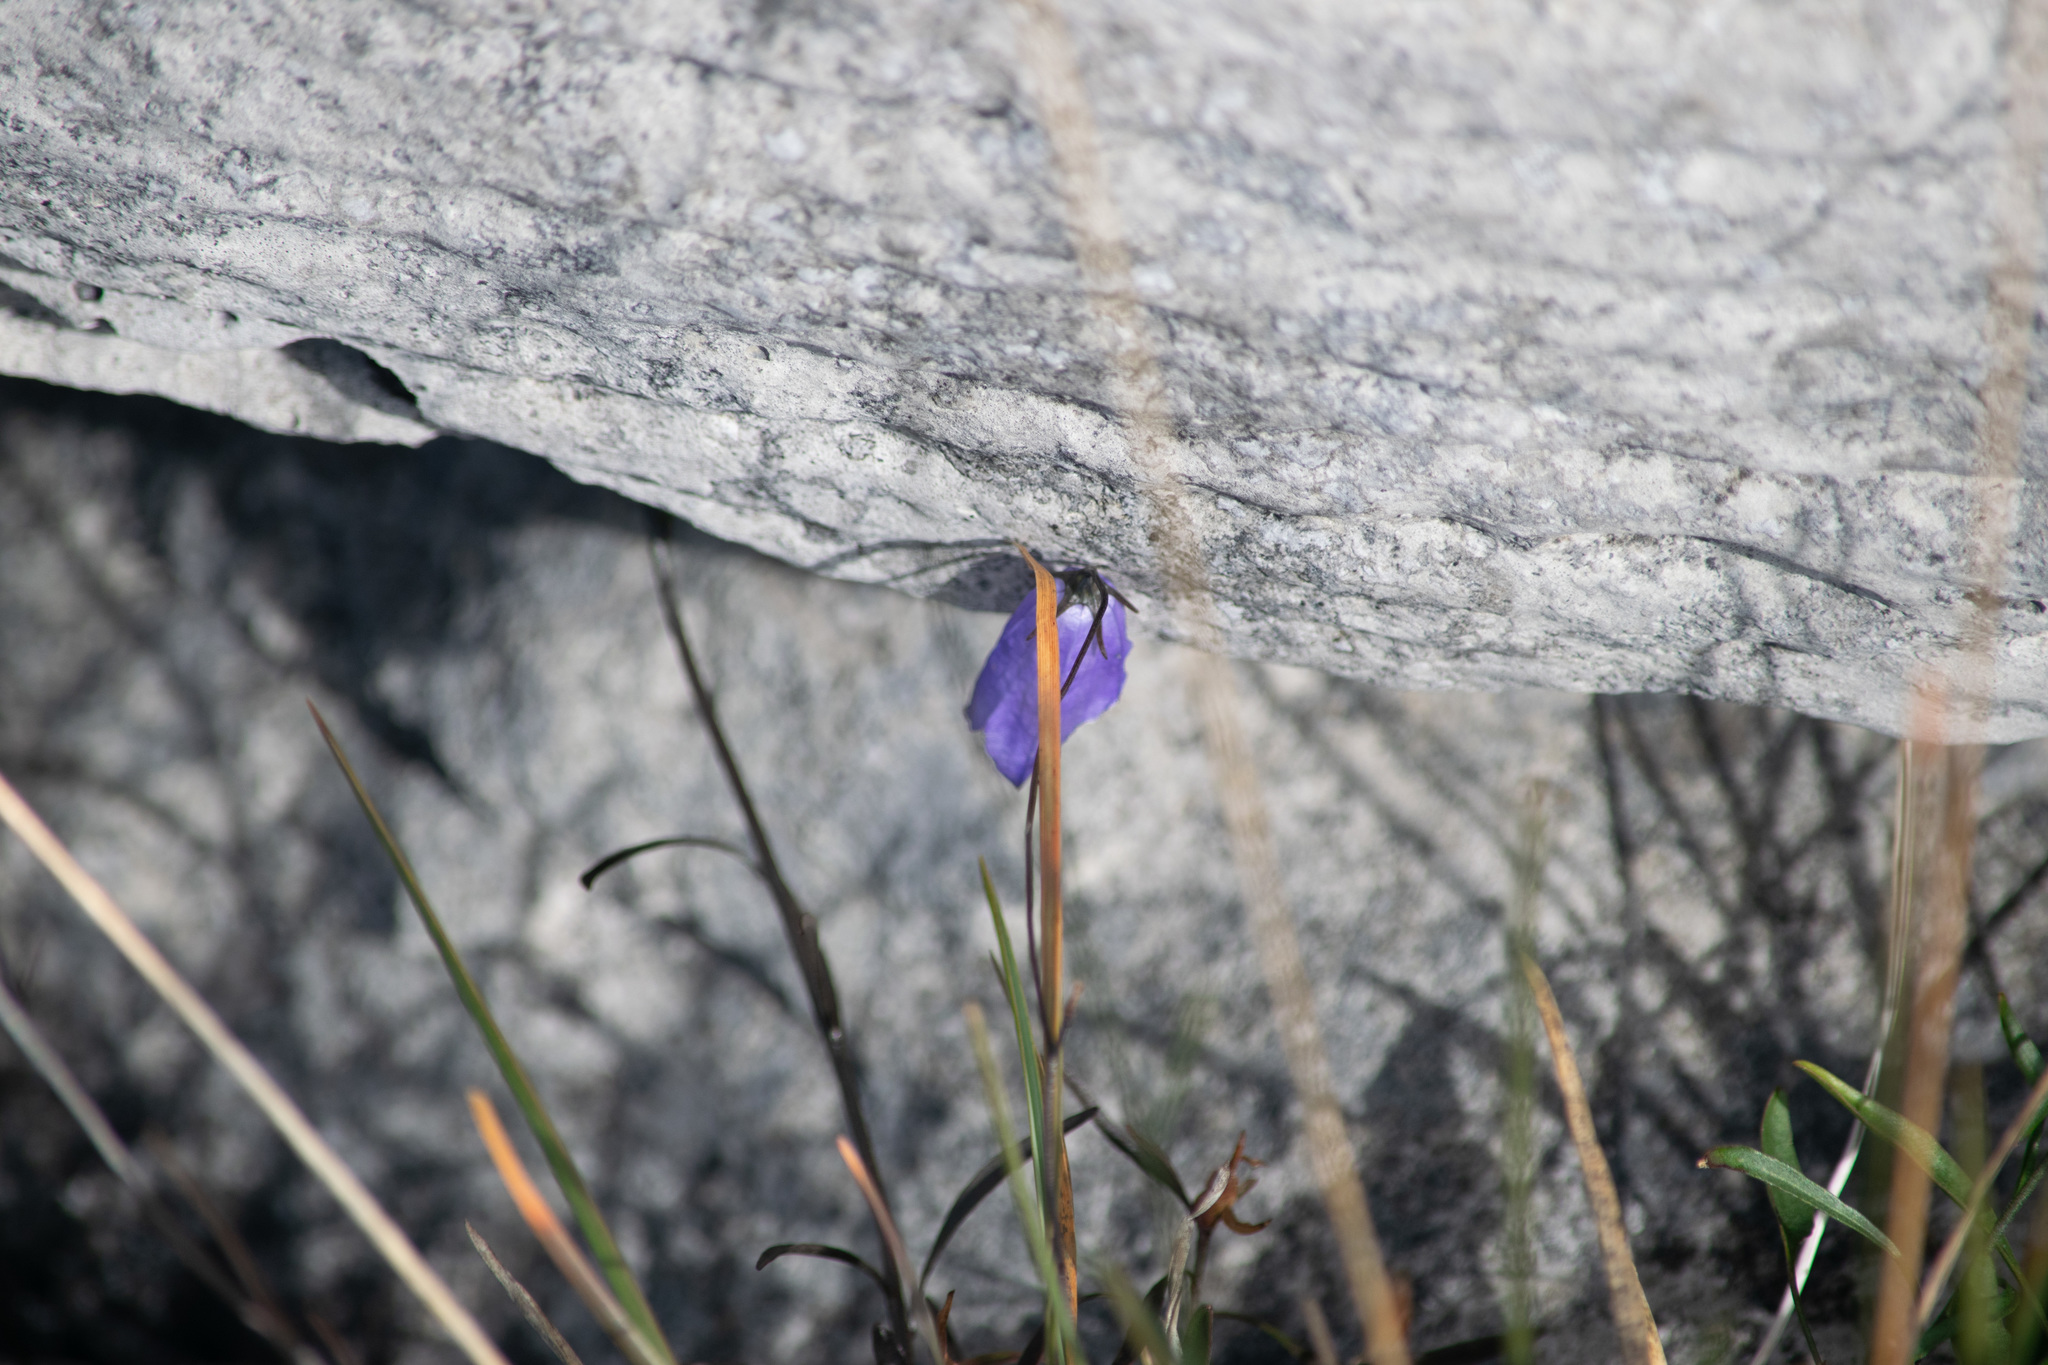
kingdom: Plantae
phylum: Tracheophyta
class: Magnoliopsida
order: Asterales
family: Campanulaceae
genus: Campanula
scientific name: Campanula rotundifolia
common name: Harebell
